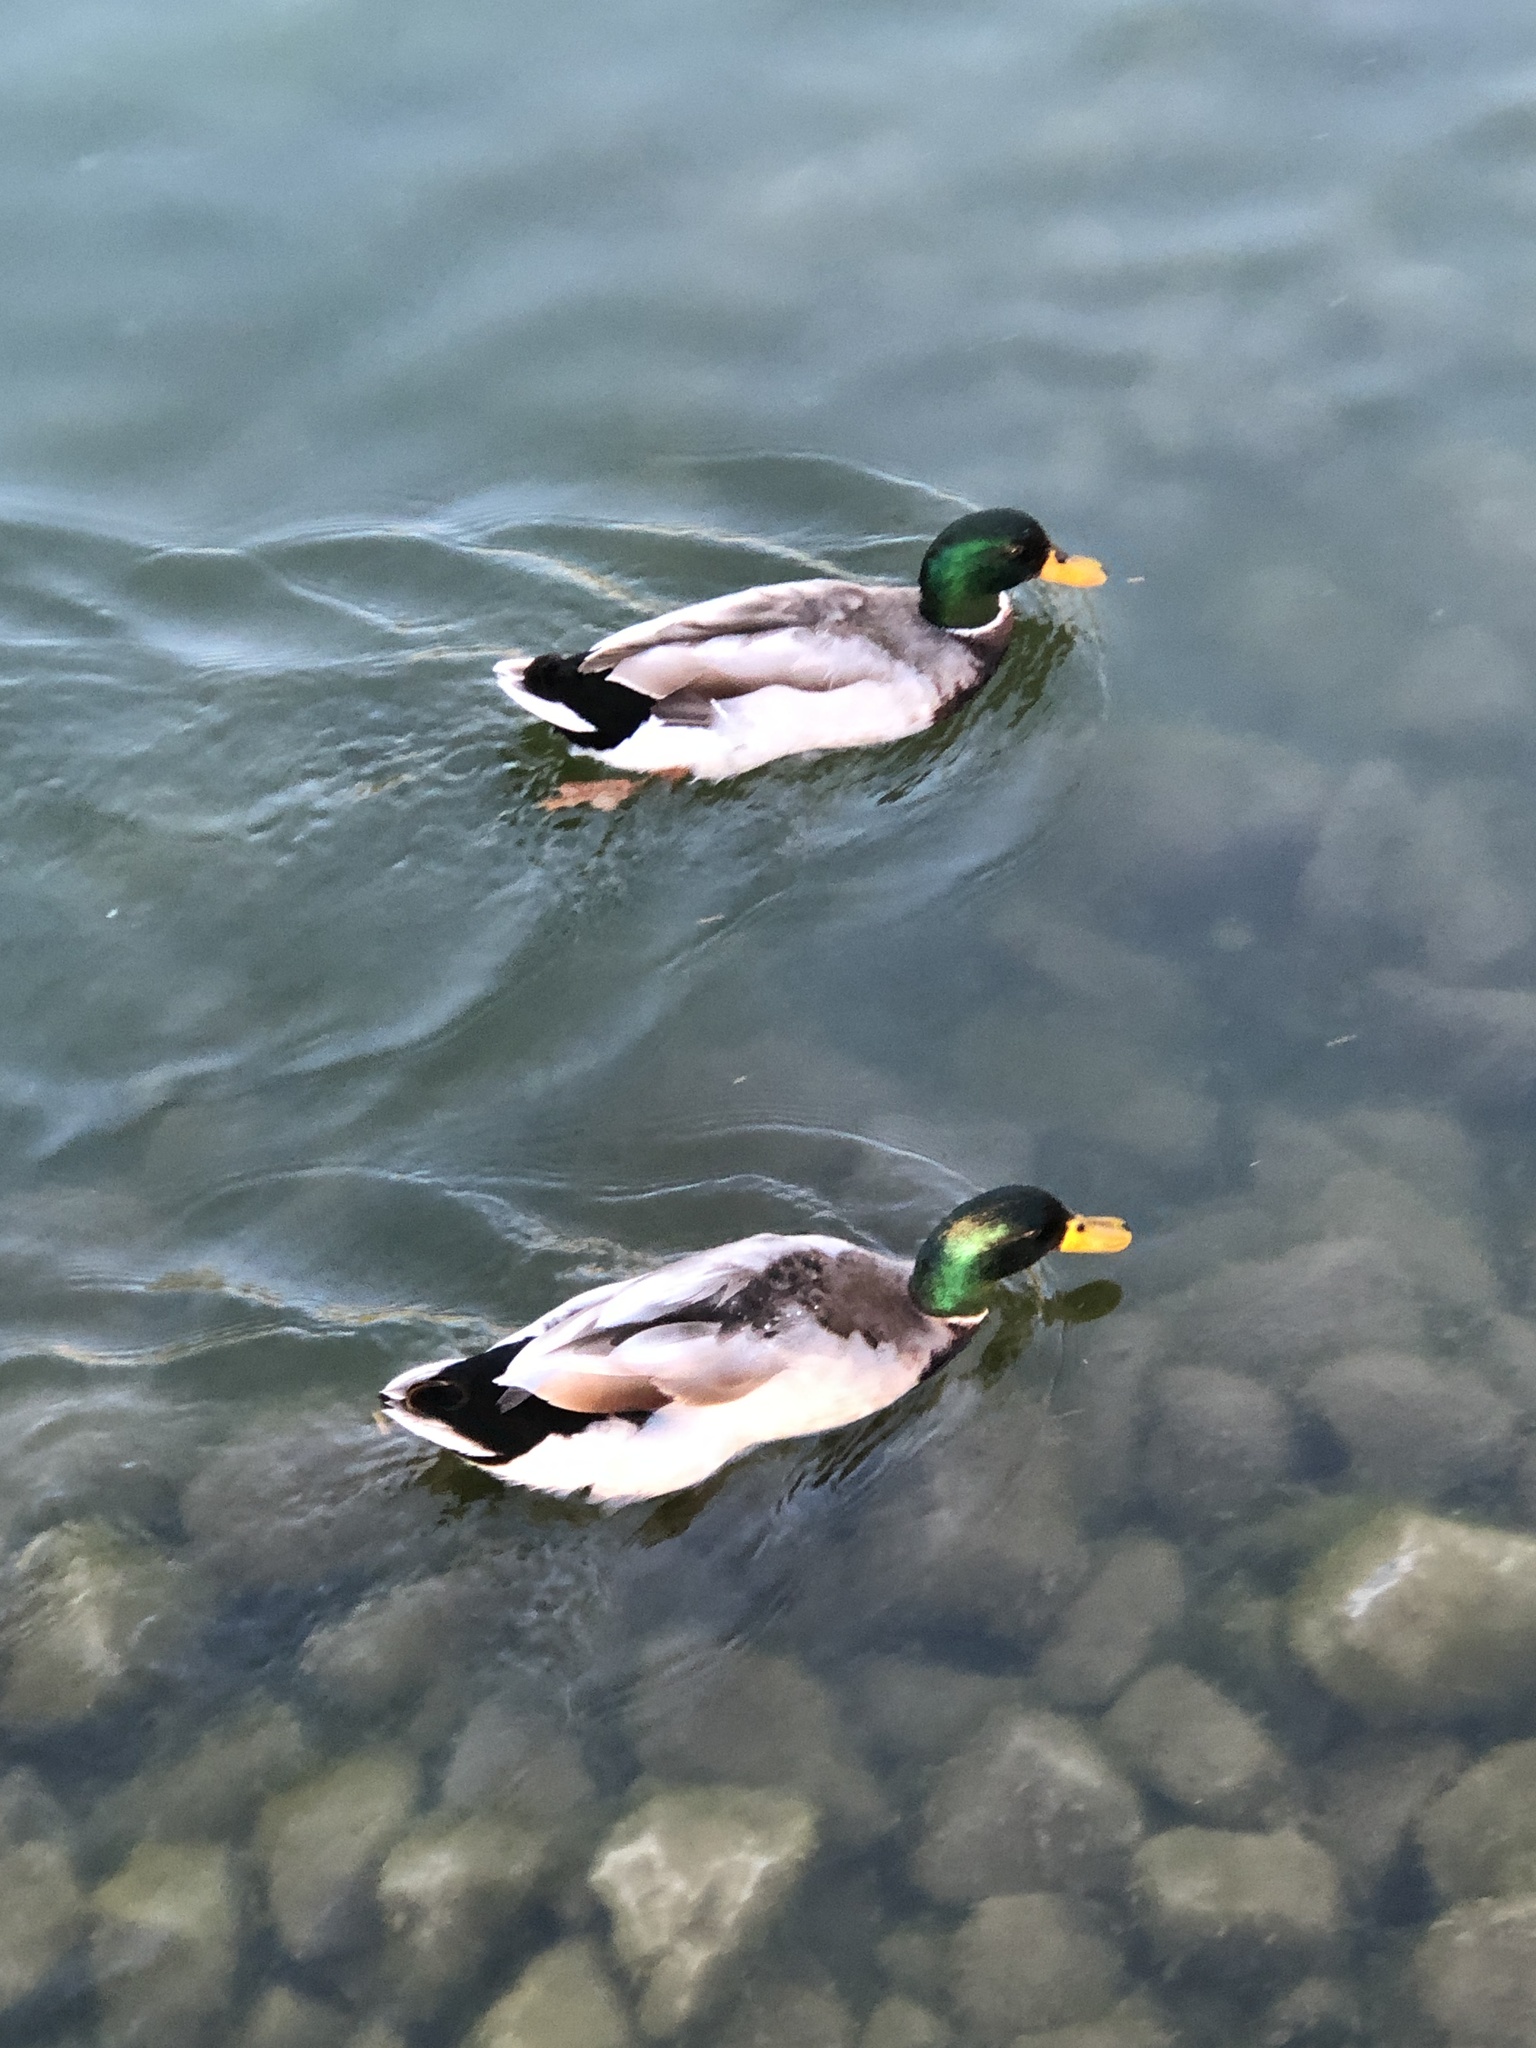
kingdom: Animalia
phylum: Chordata
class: Aves
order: Anseriformes
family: Anatidae
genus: Anas
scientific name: Anas platyrhynchos
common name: Mallard
